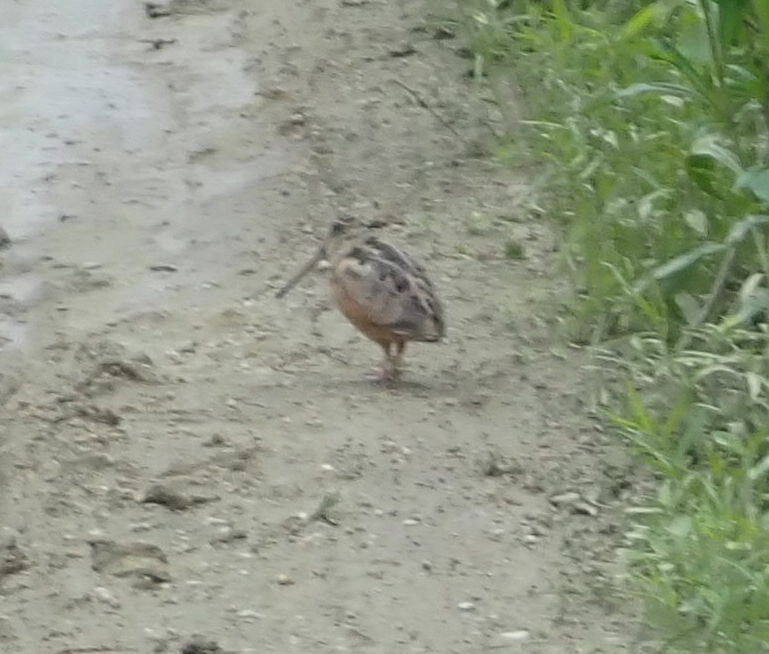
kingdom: Animalia
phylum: Chordata
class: Aves
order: Charadriiformes
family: Scolopacidae
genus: Scolopax
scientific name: Scolopax minor
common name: American woodcock
